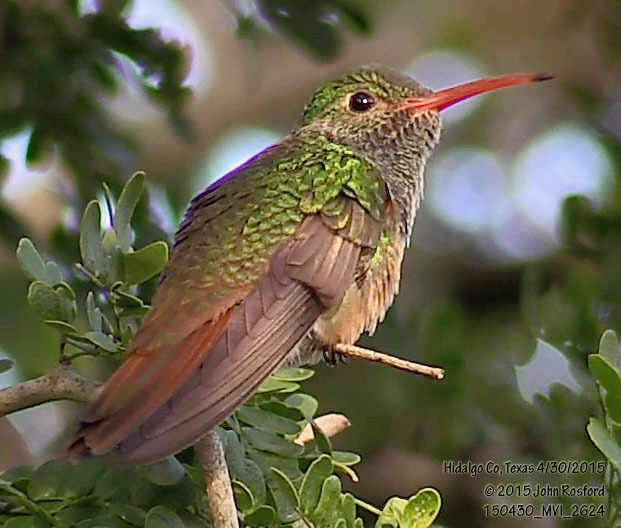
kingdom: Animalia
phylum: Chordata
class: Aves
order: Apodiformes
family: Trochilidae
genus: Amazilia
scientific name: Amazilia yucatanensis
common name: Buff-bellied hummingbird
